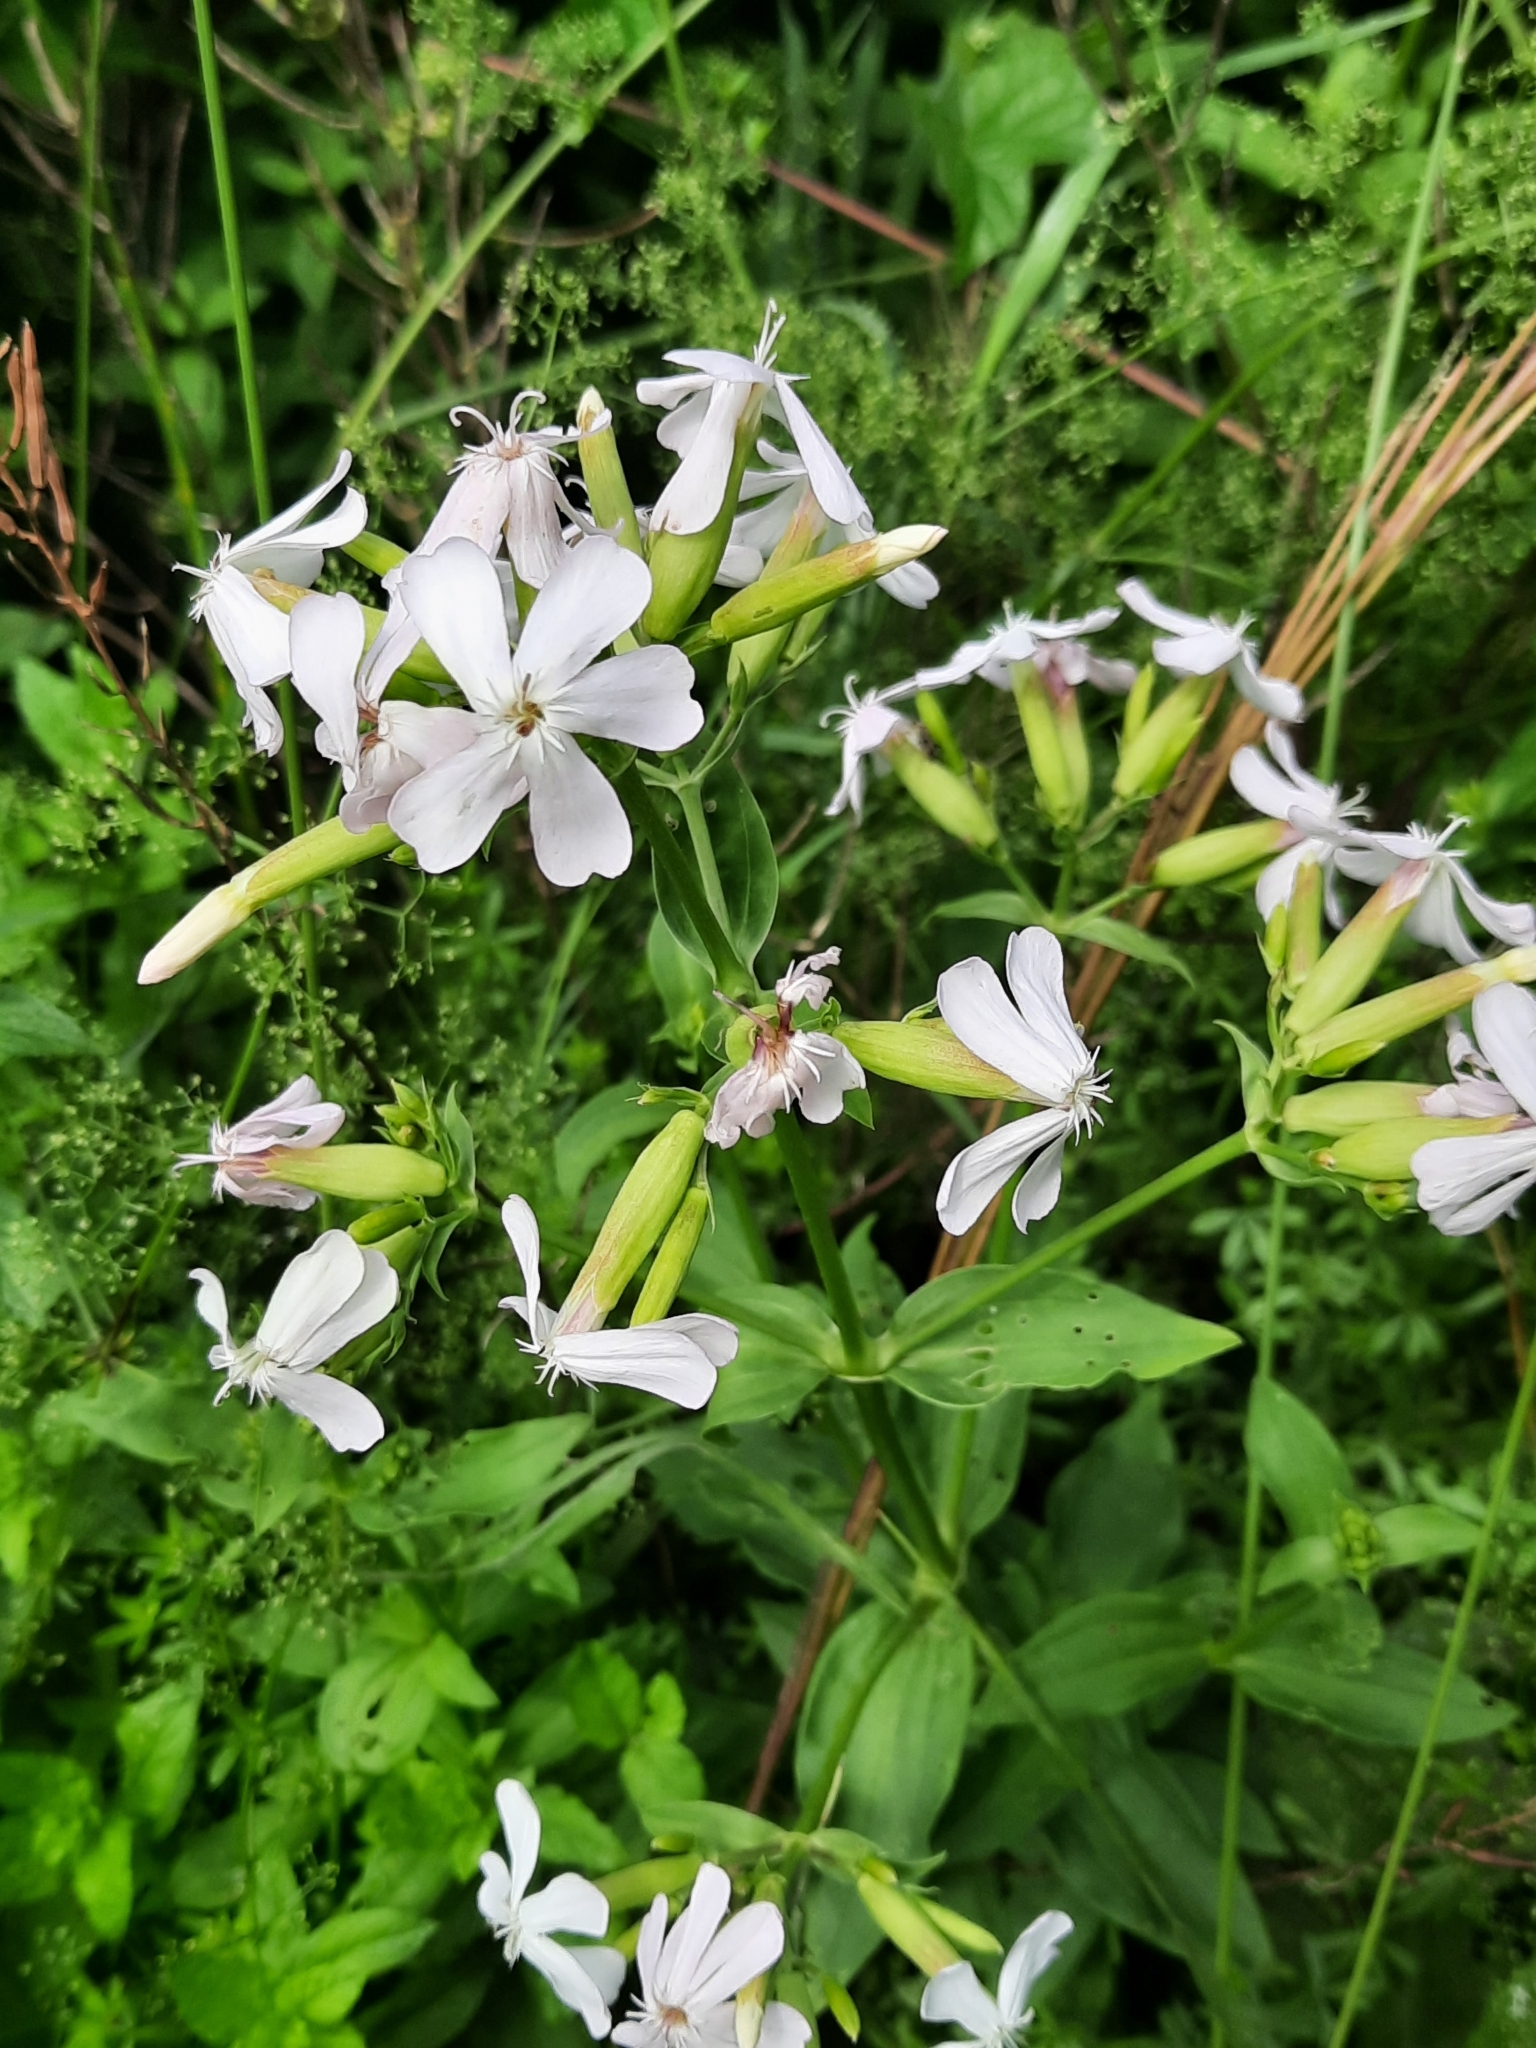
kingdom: Plantae
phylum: Tracheophyta
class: Magnoliopsida
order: Caryophyllales
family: Caryophyllaceae
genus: Saponaria
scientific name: Saponaria officinalis
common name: Soapwort
